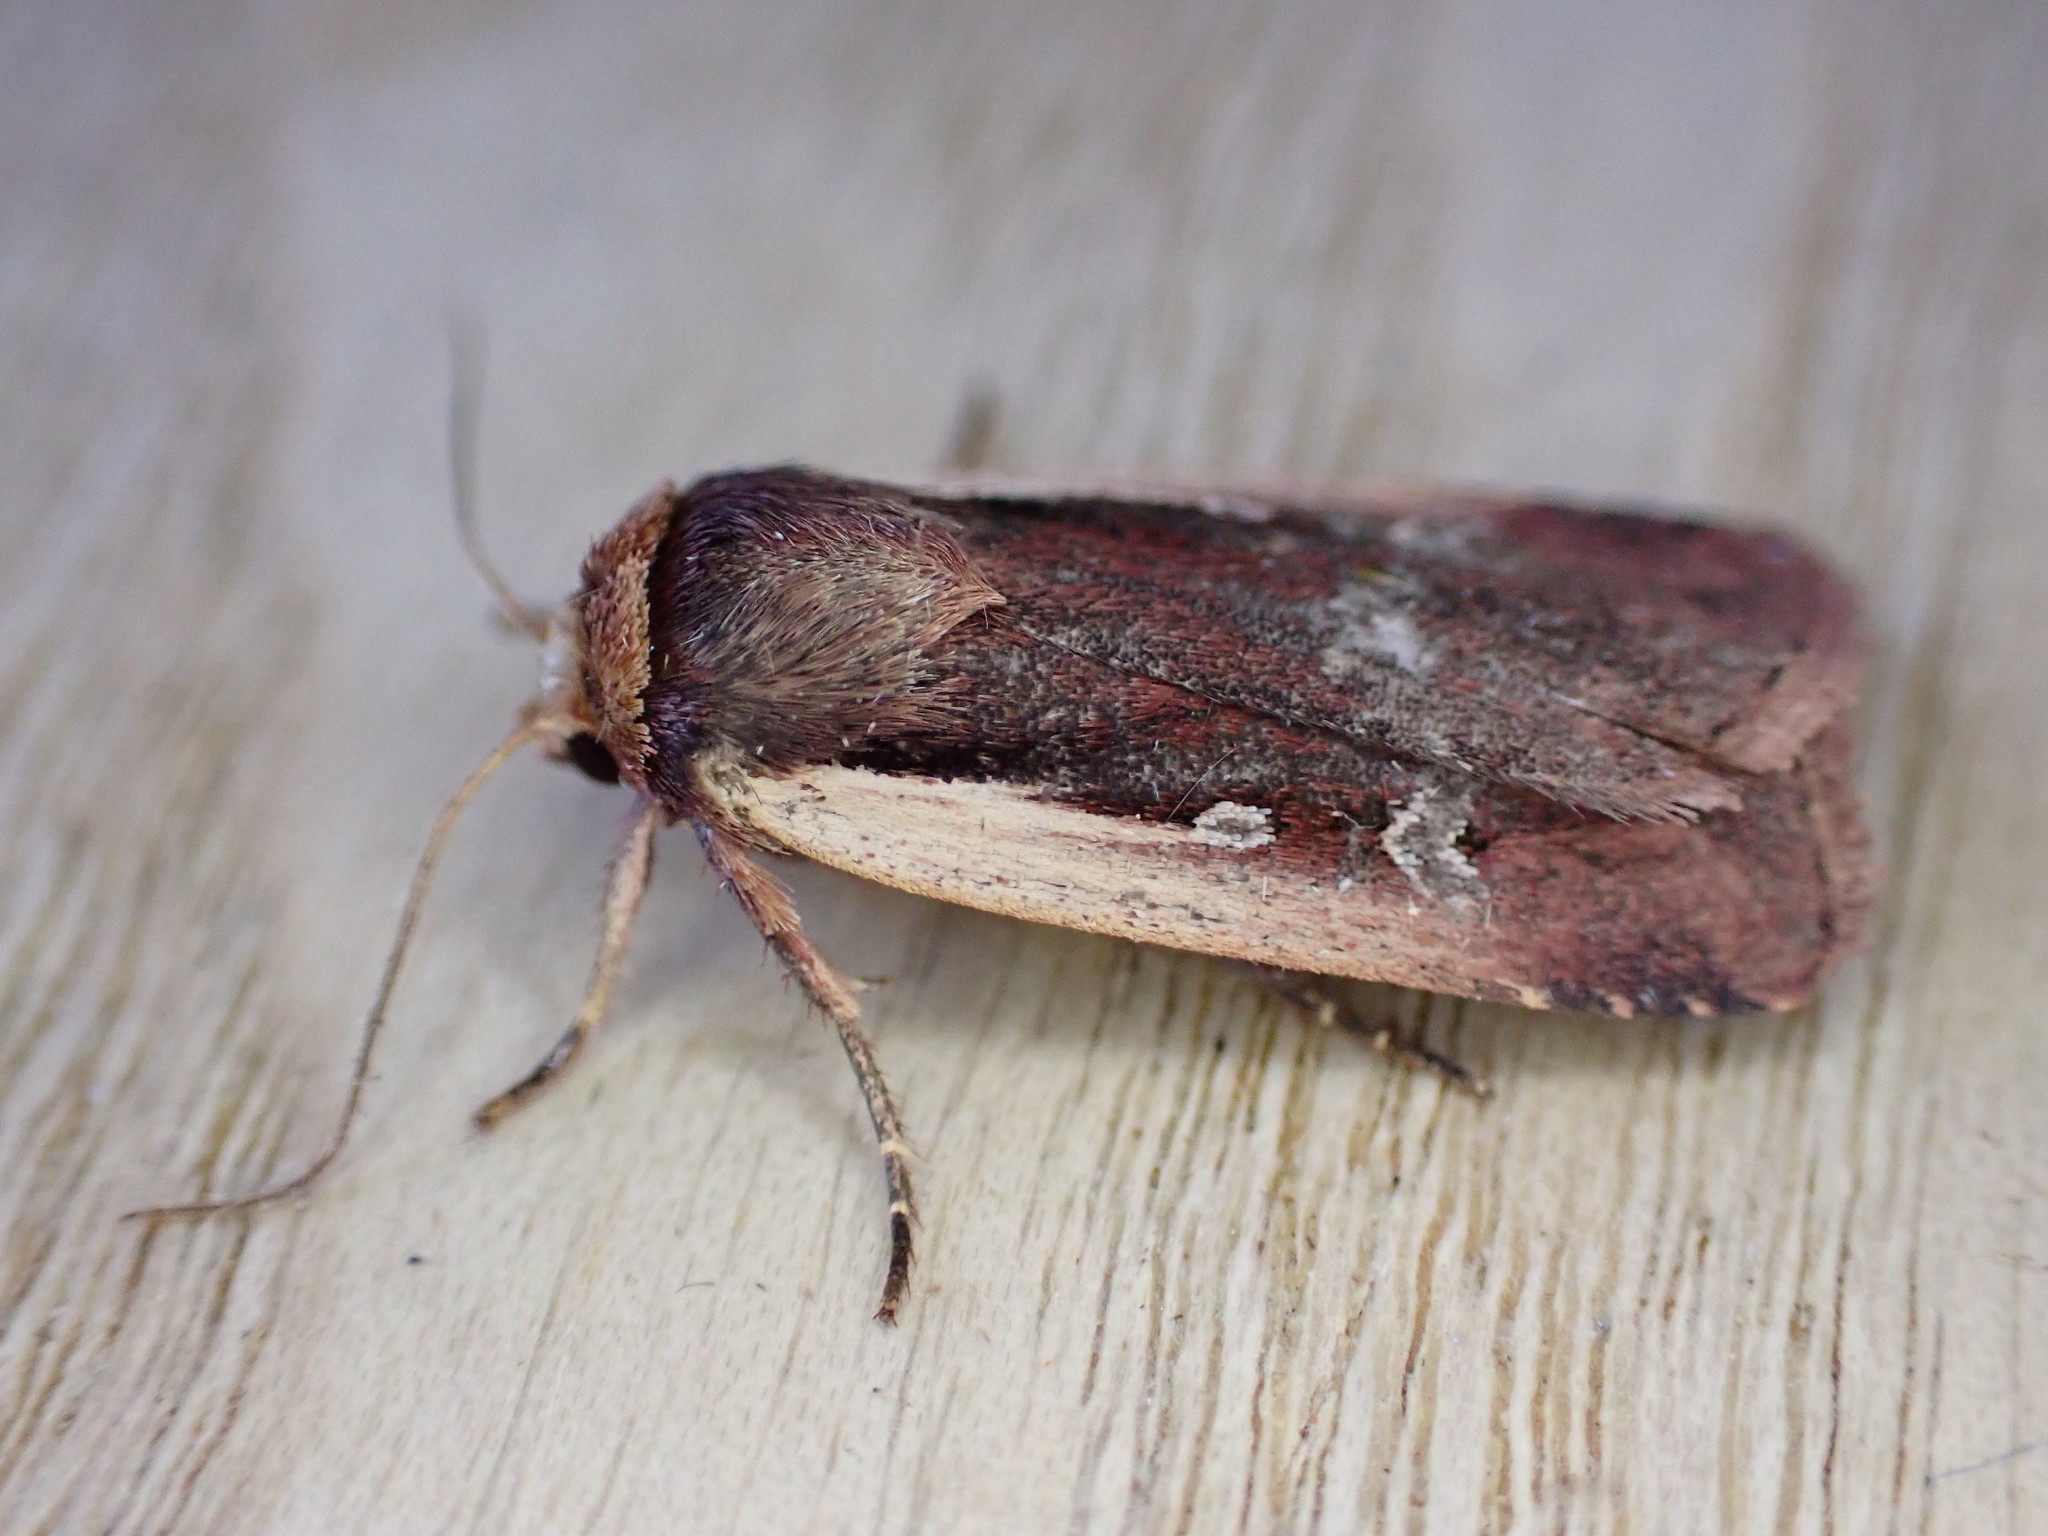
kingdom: Animalia
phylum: Arthropoda
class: Insecta
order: Lepidoptera
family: Noctuidae
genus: Ochropleura
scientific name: Ochropleura plecta
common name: Flame shoulder
